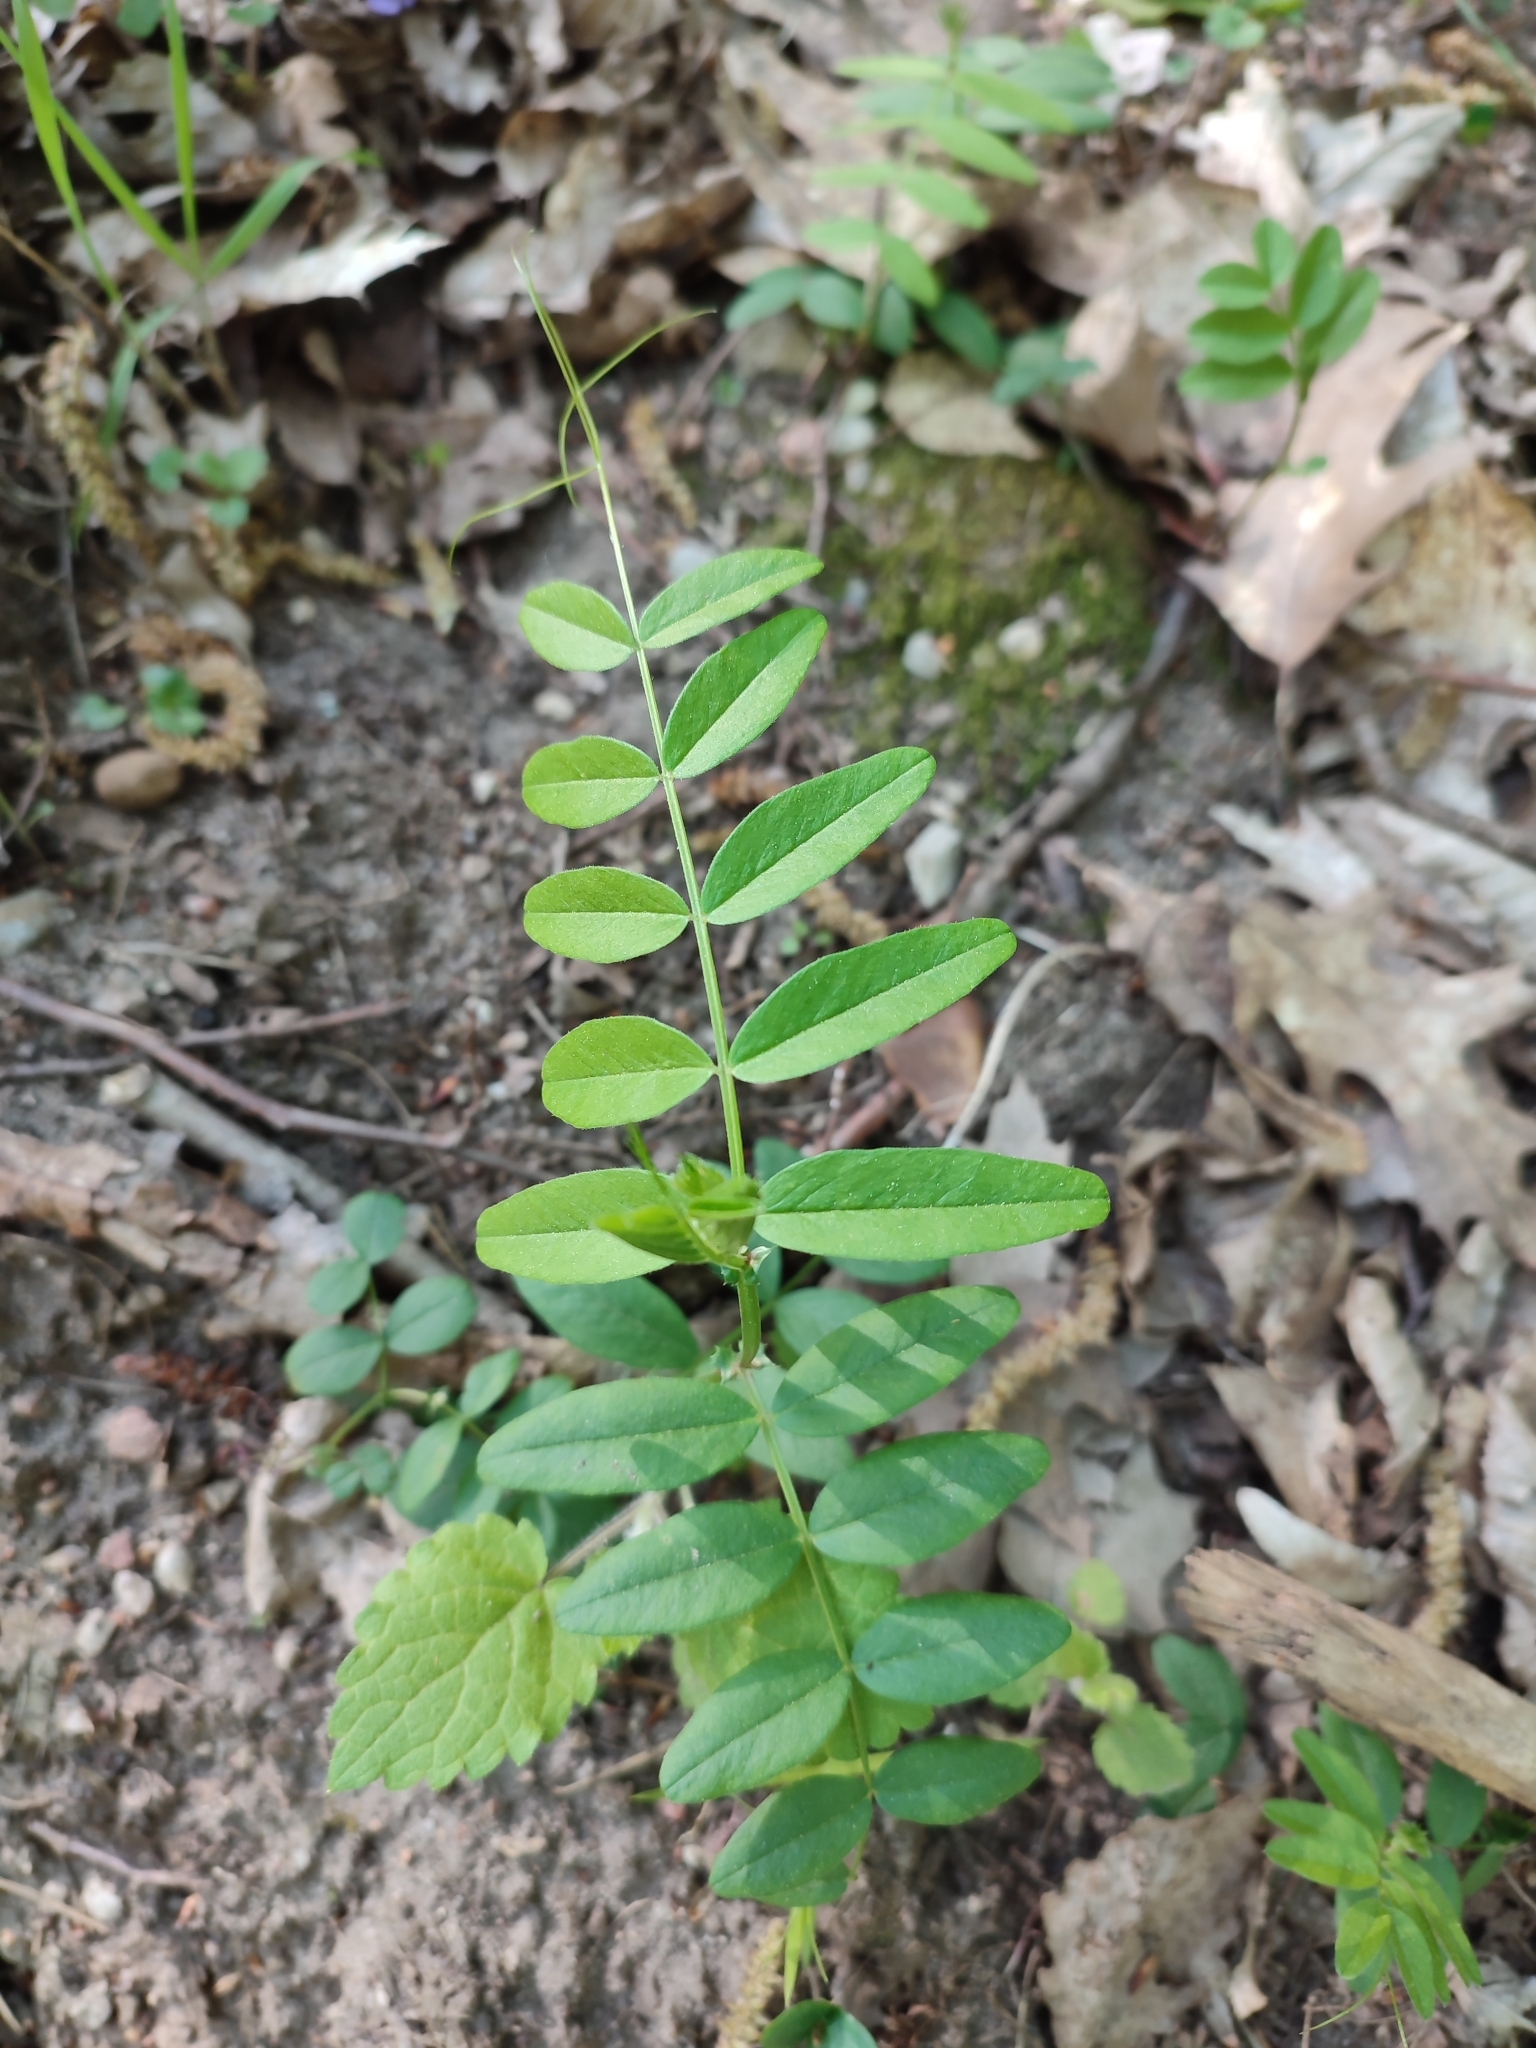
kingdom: Plantae
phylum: Tracheophyta
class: Magnoliopsida
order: Fabales
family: Fabaceae
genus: Vicia
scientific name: Vicia sepium
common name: Bush vetch
